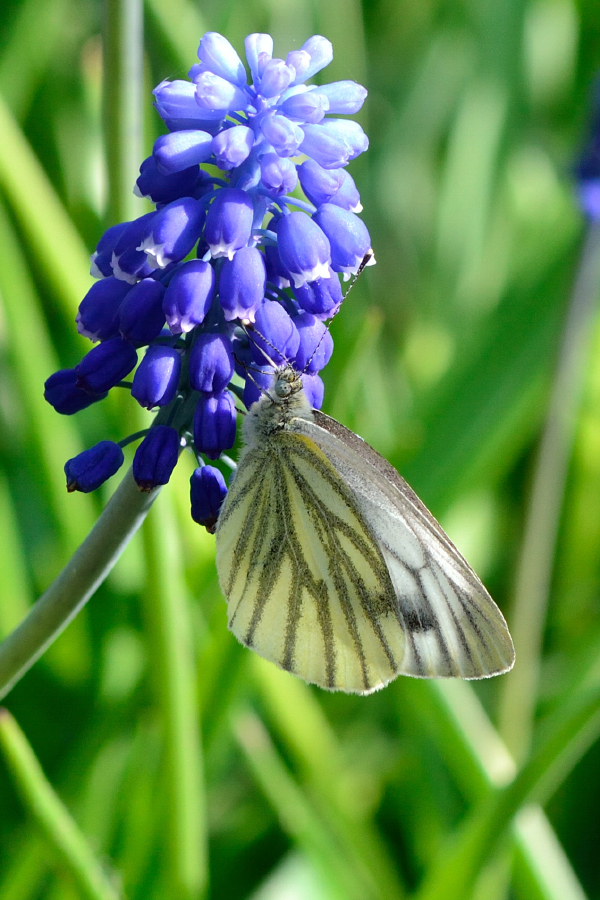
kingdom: Animalia
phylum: Arthropoda
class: Insecta
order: Lepidoptera
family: Pieridae
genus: Pieris
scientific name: Pieris napi
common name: Green-veined white
